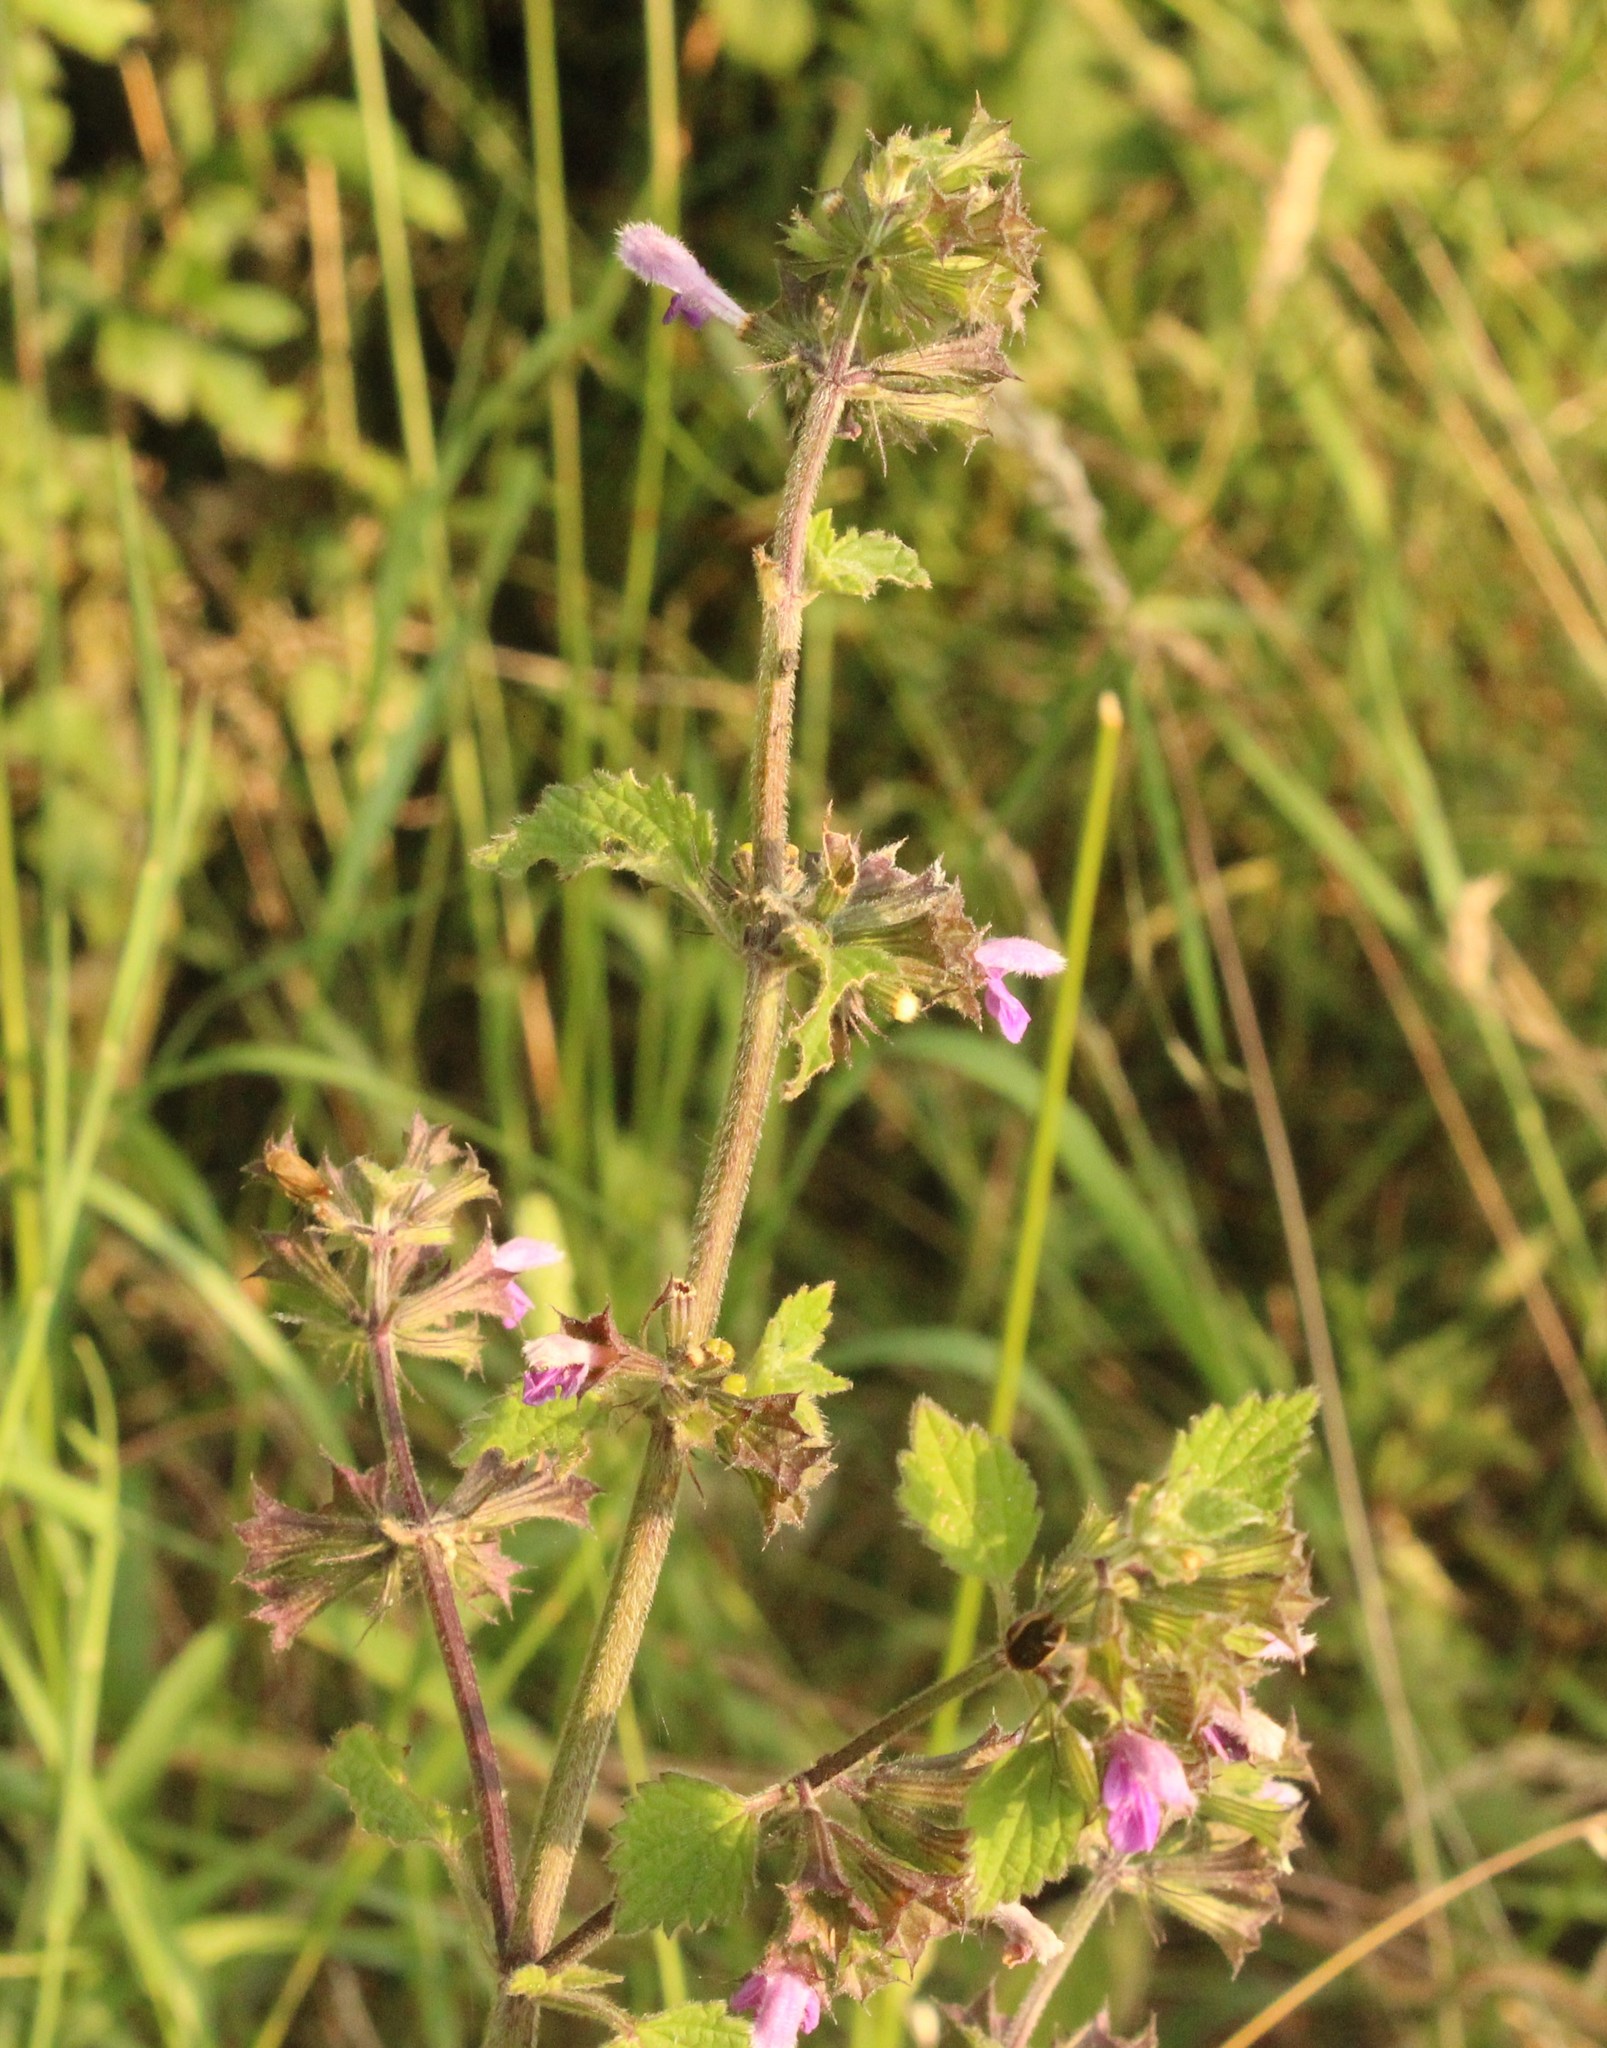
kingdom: Plantae
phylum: Tracheophyta
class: Magnoliopsida
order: Lamiales
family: Lamiaceae
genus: Ballota
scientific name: Ballota nigra
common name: Black horehound
